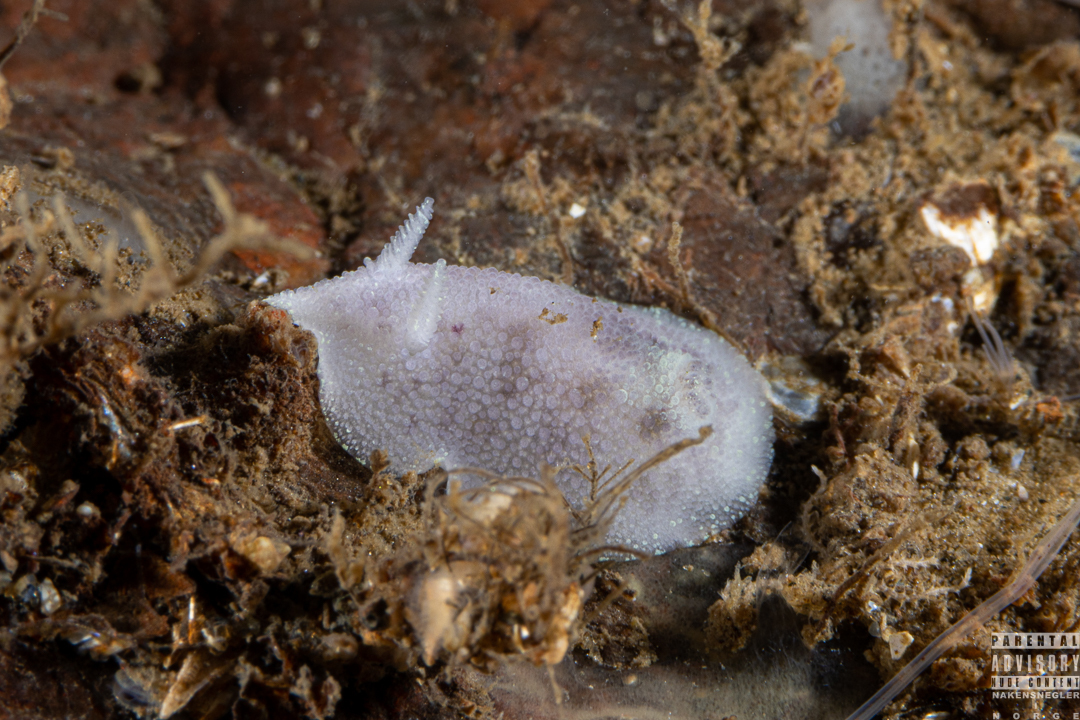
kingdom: Animalia
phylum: Mollusca
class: Gastropoda
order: Nudibranchia
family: Dorididae
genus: Doris
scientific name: Doris pseudoargus
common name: Sea lemon
